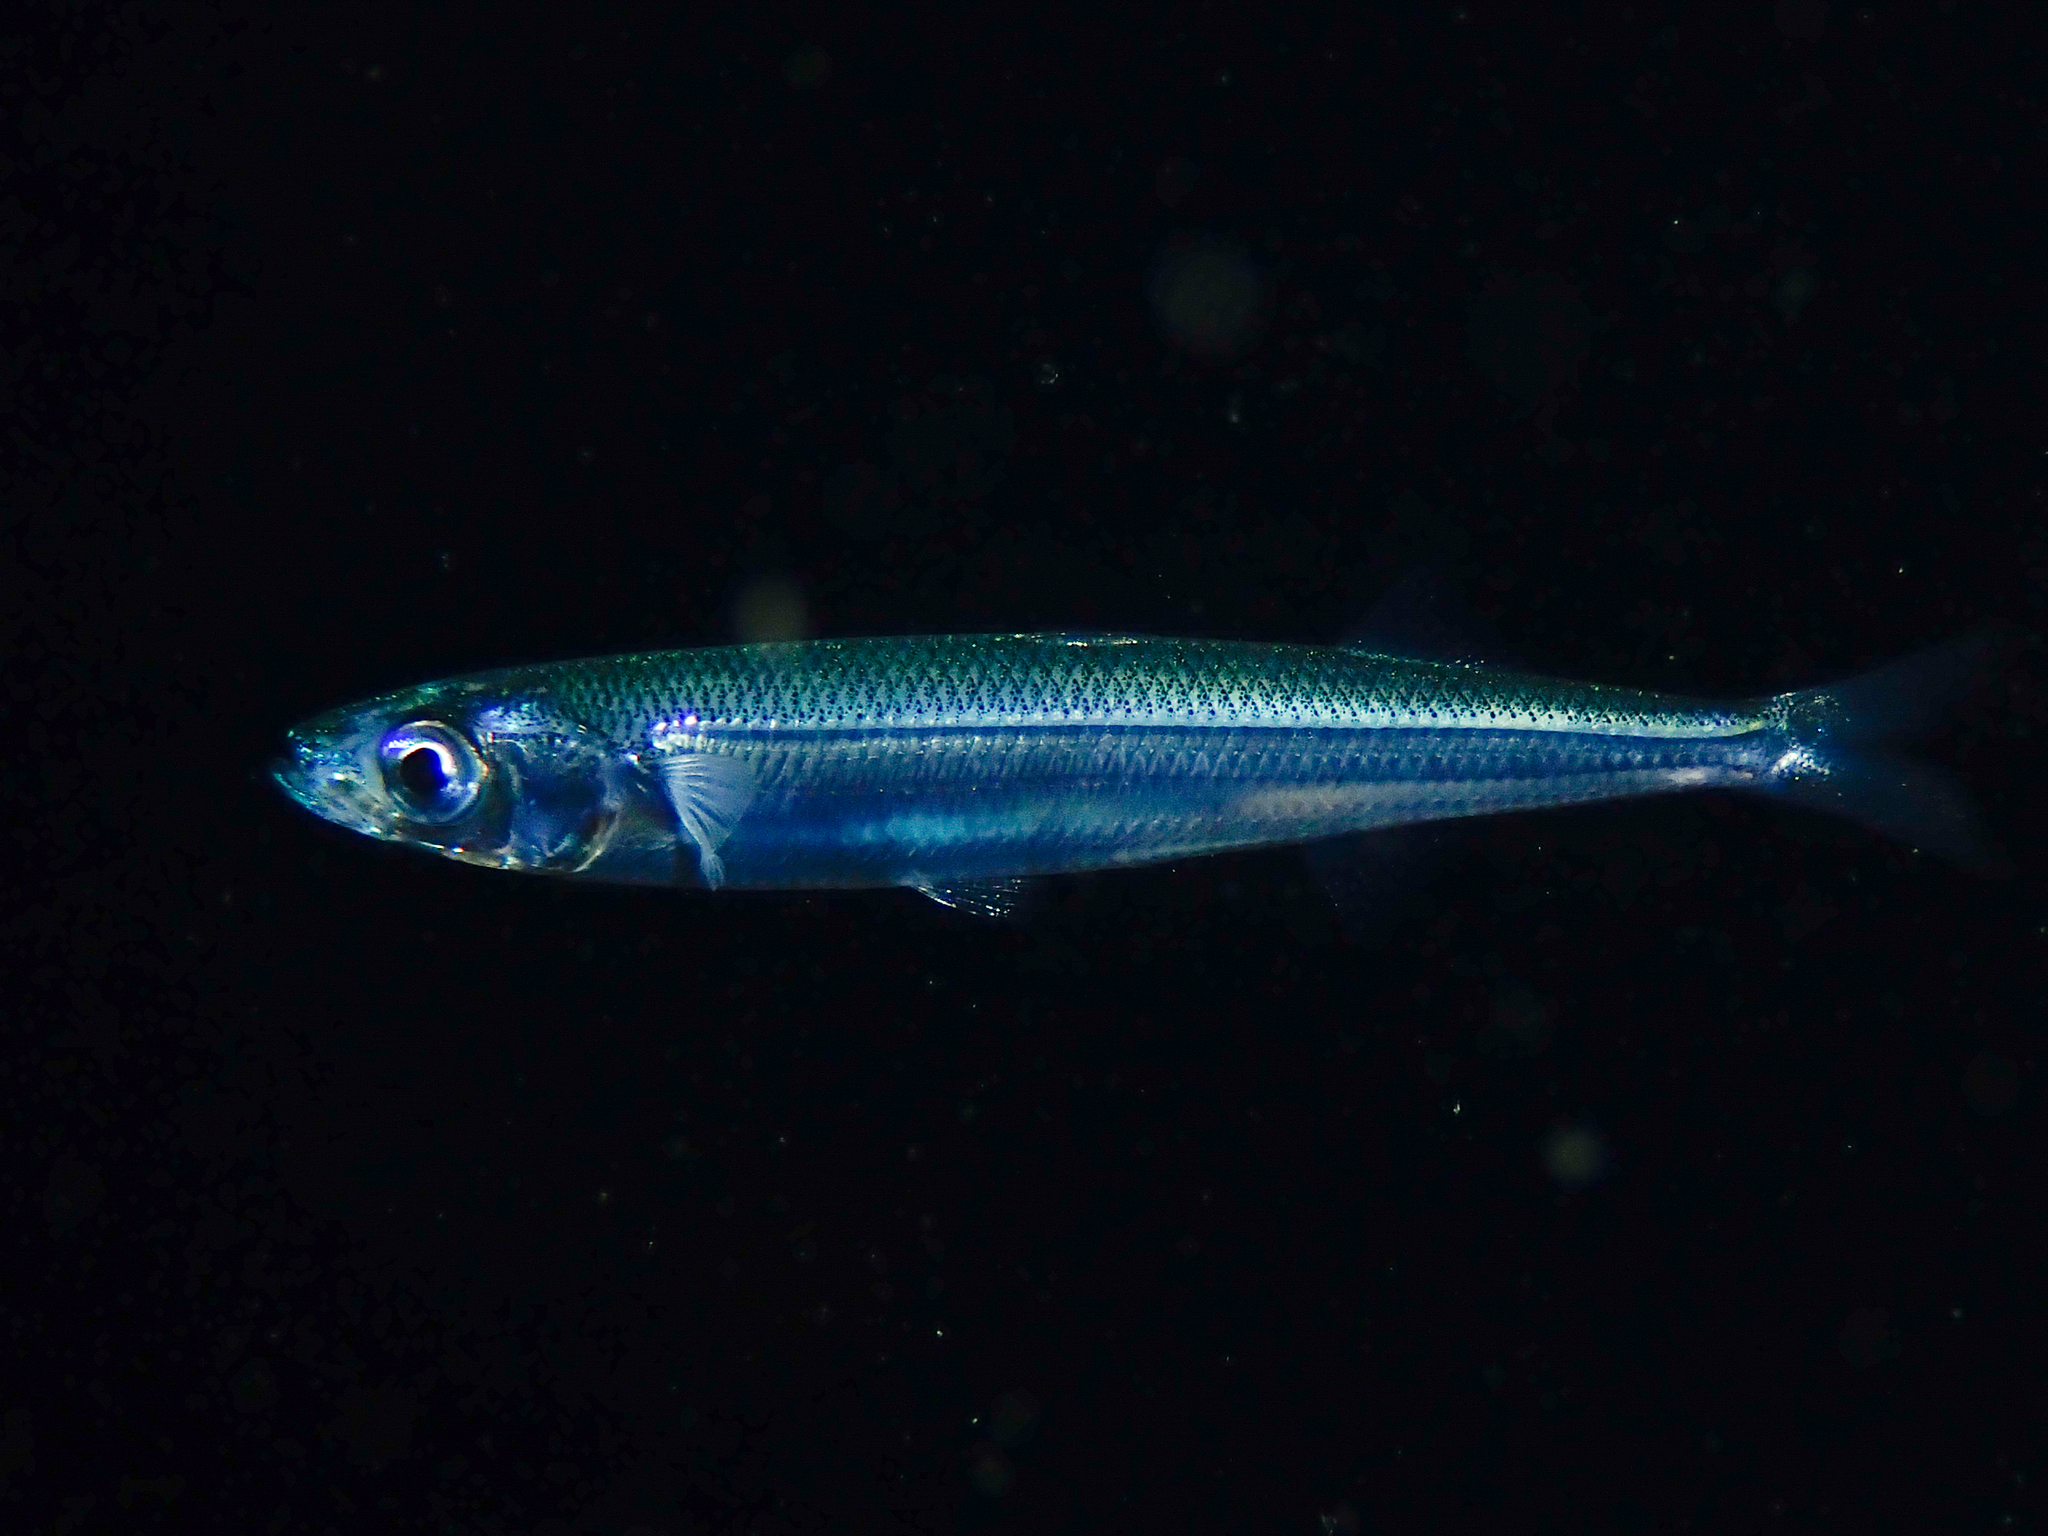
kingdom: Animalia
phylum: Chordata
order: Atheriniformes
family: Atherinidae
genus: Atherina
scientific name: Atherina hepsetus
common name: Mediterranean sand smelt
